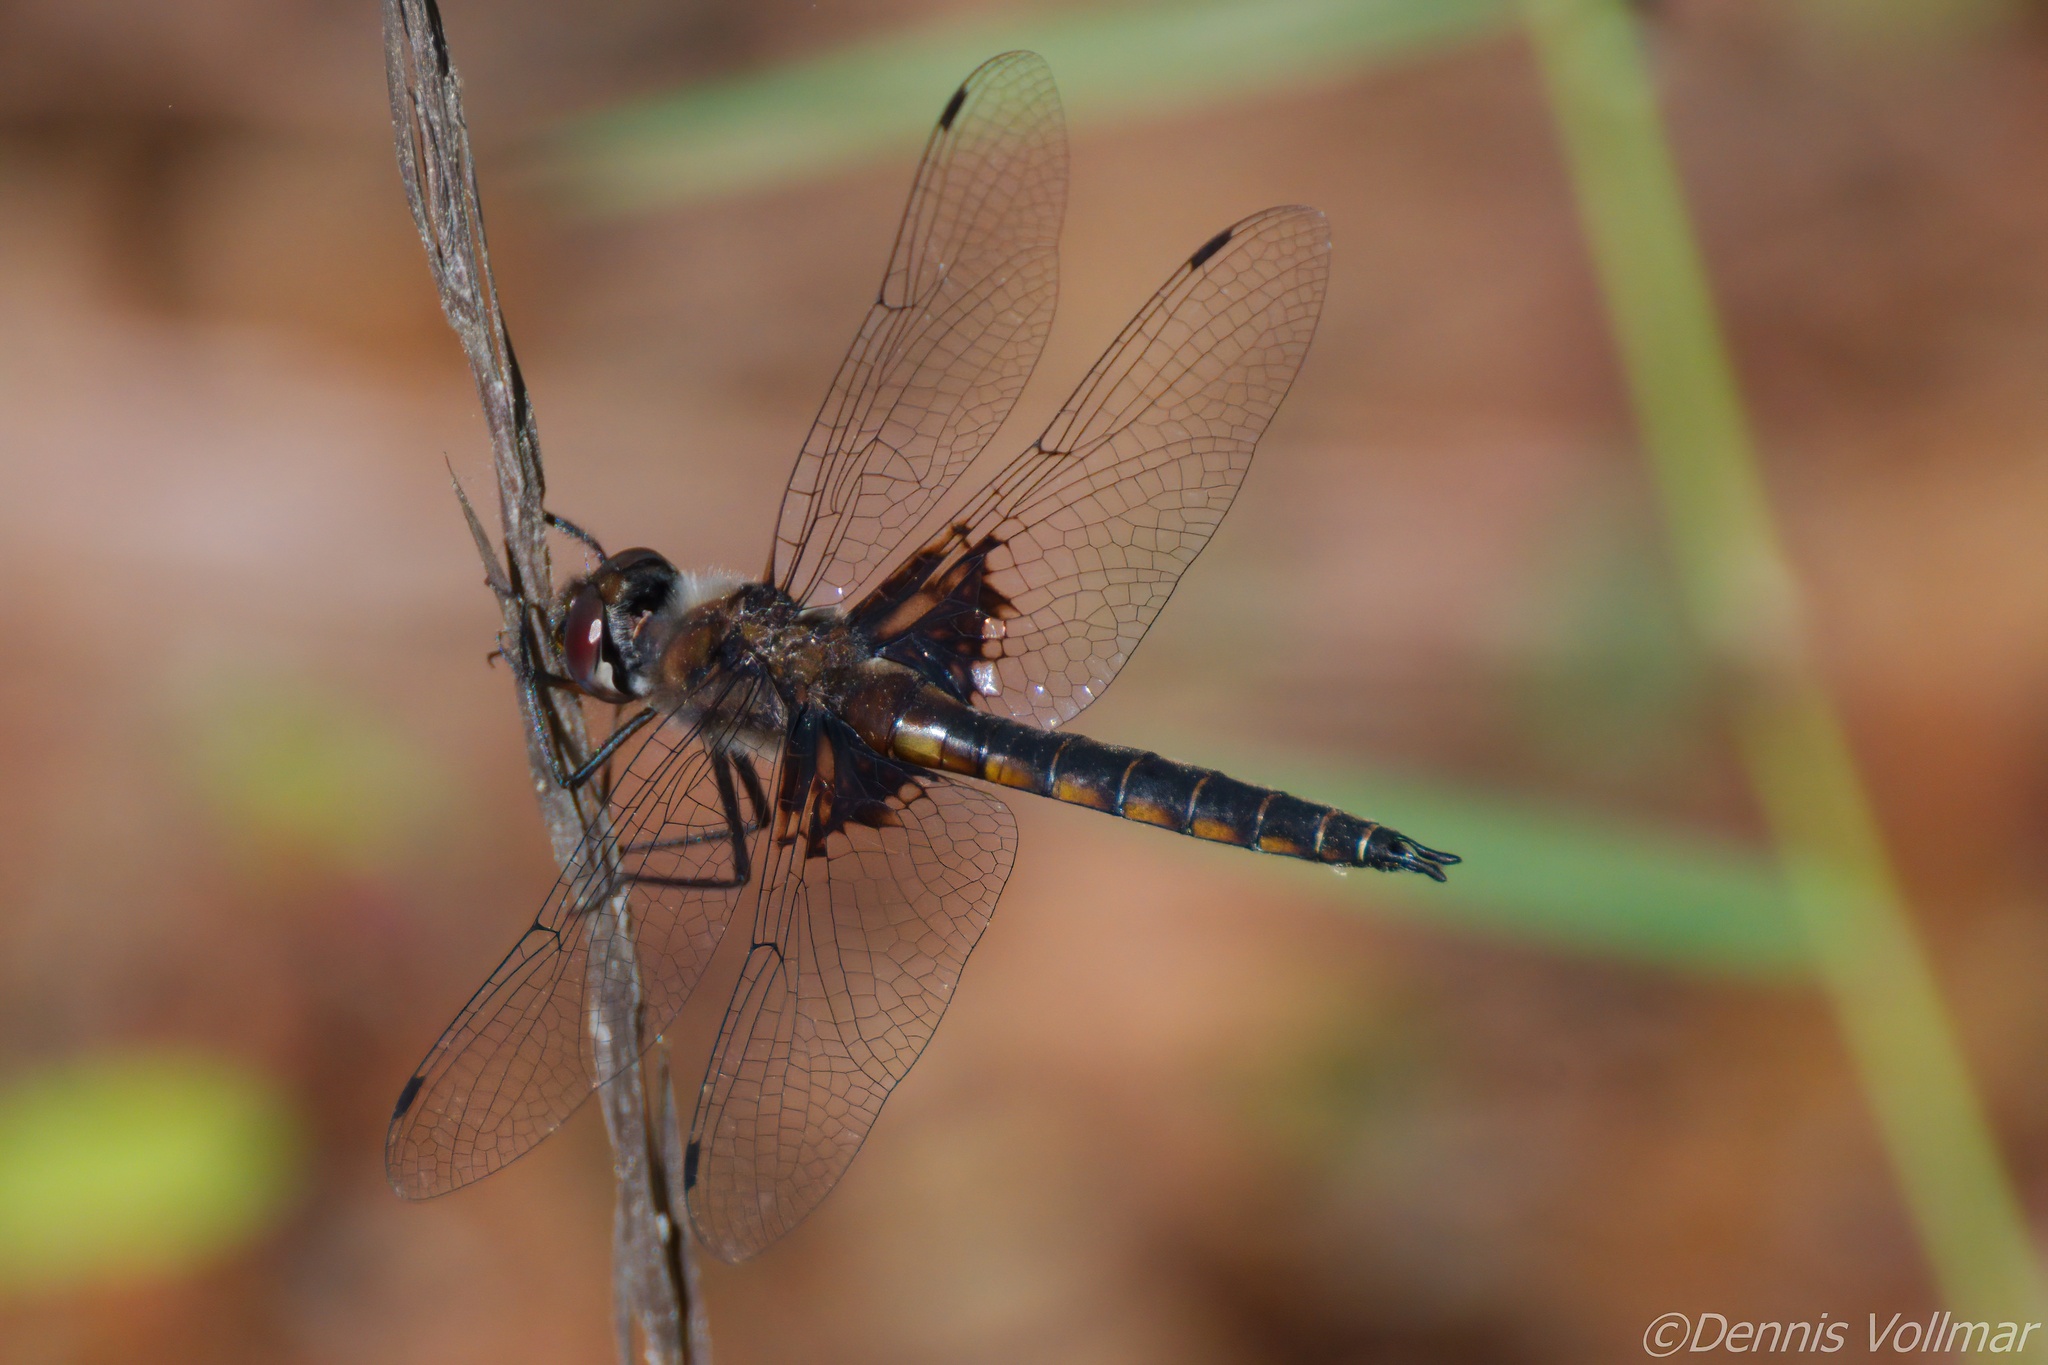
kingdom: Animalia
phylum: Arthropoda
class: Insecta
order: Odonata
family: Corduliidae
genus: Epitheca
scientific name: Epitheca cynosura
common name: Common baskettail
